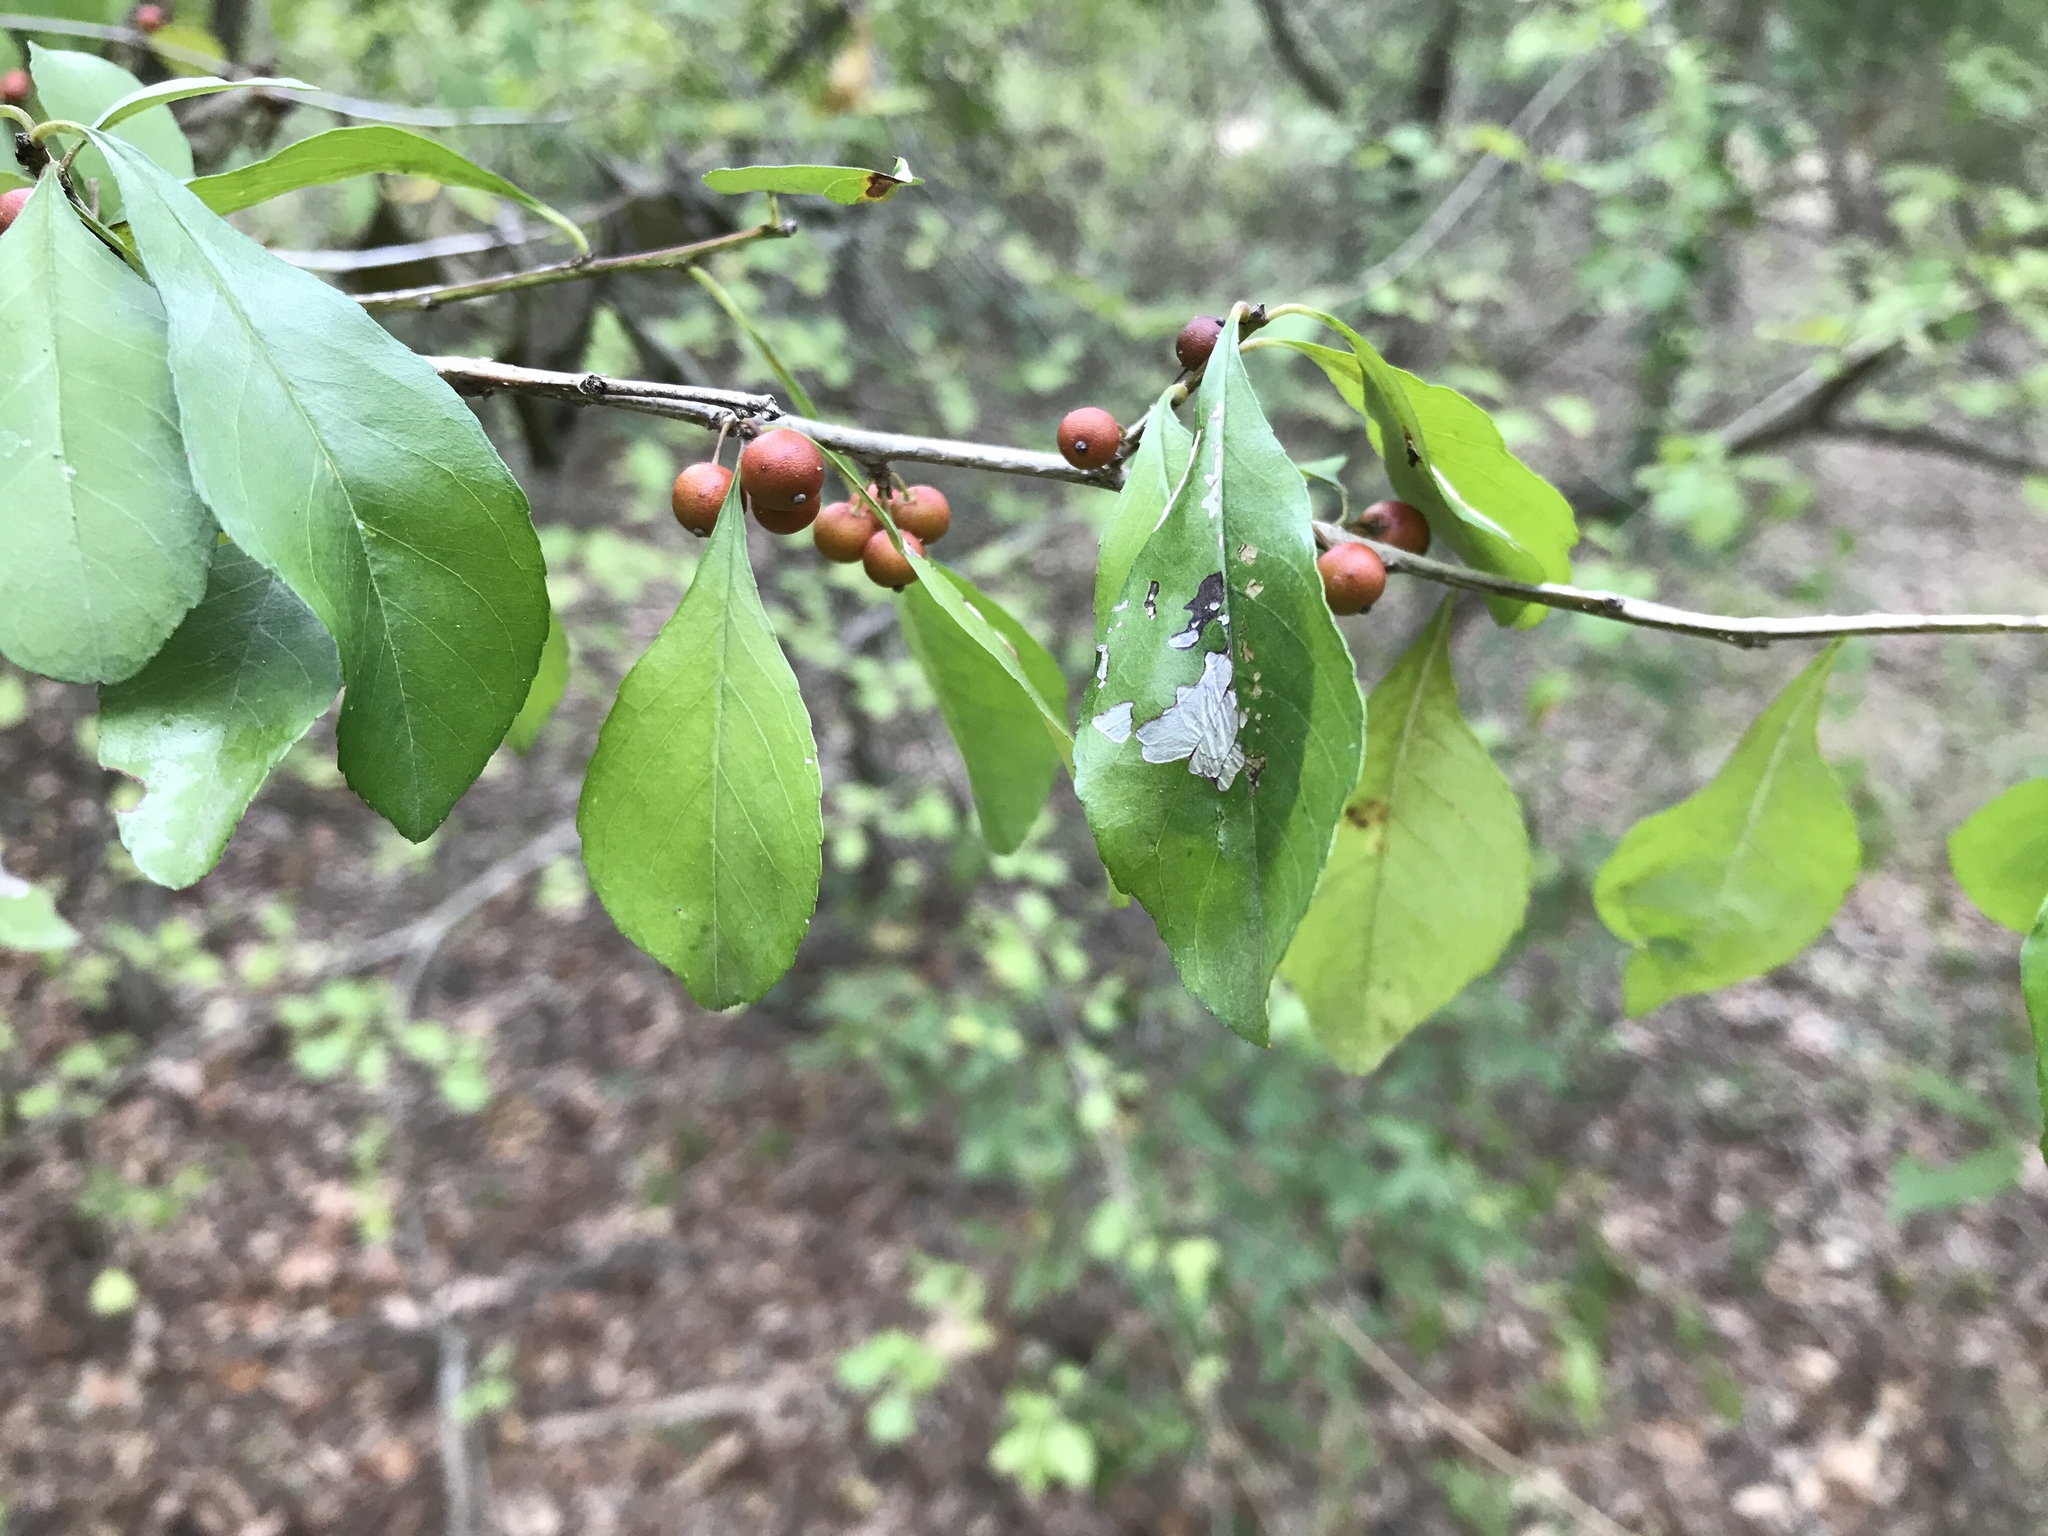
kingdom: Plantae
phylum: Tracheophyta
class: Magnoliopsida
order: Aquifoliales
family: Aquifoliaceae
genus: Ilex
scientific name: Ilex decidua
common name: Possum-haw
